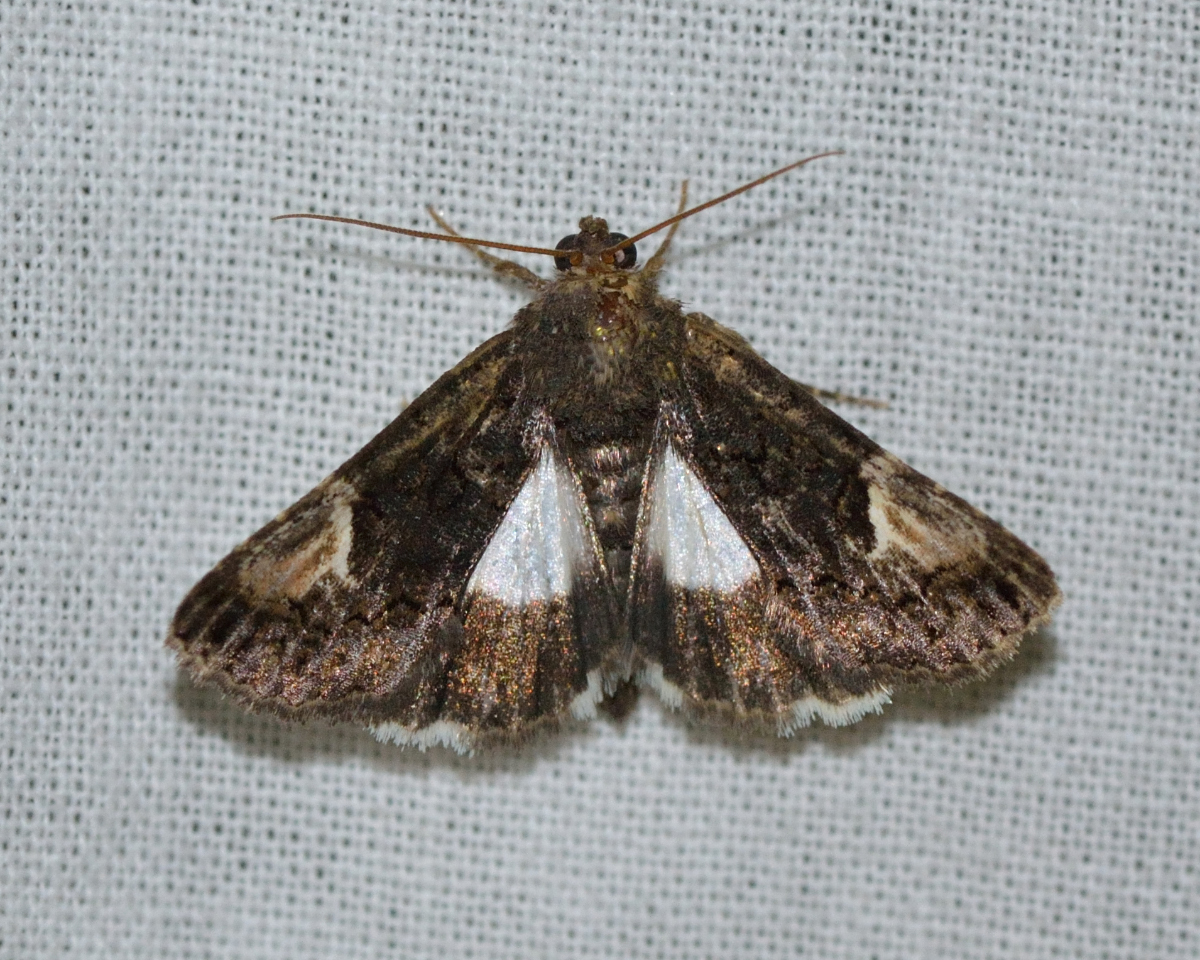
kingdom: Animalia
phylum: Arthropoda
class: Insecta
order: Lepidoptera
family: Noctuidae
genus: Aedia
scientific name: Aedia funesta
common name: The druid
